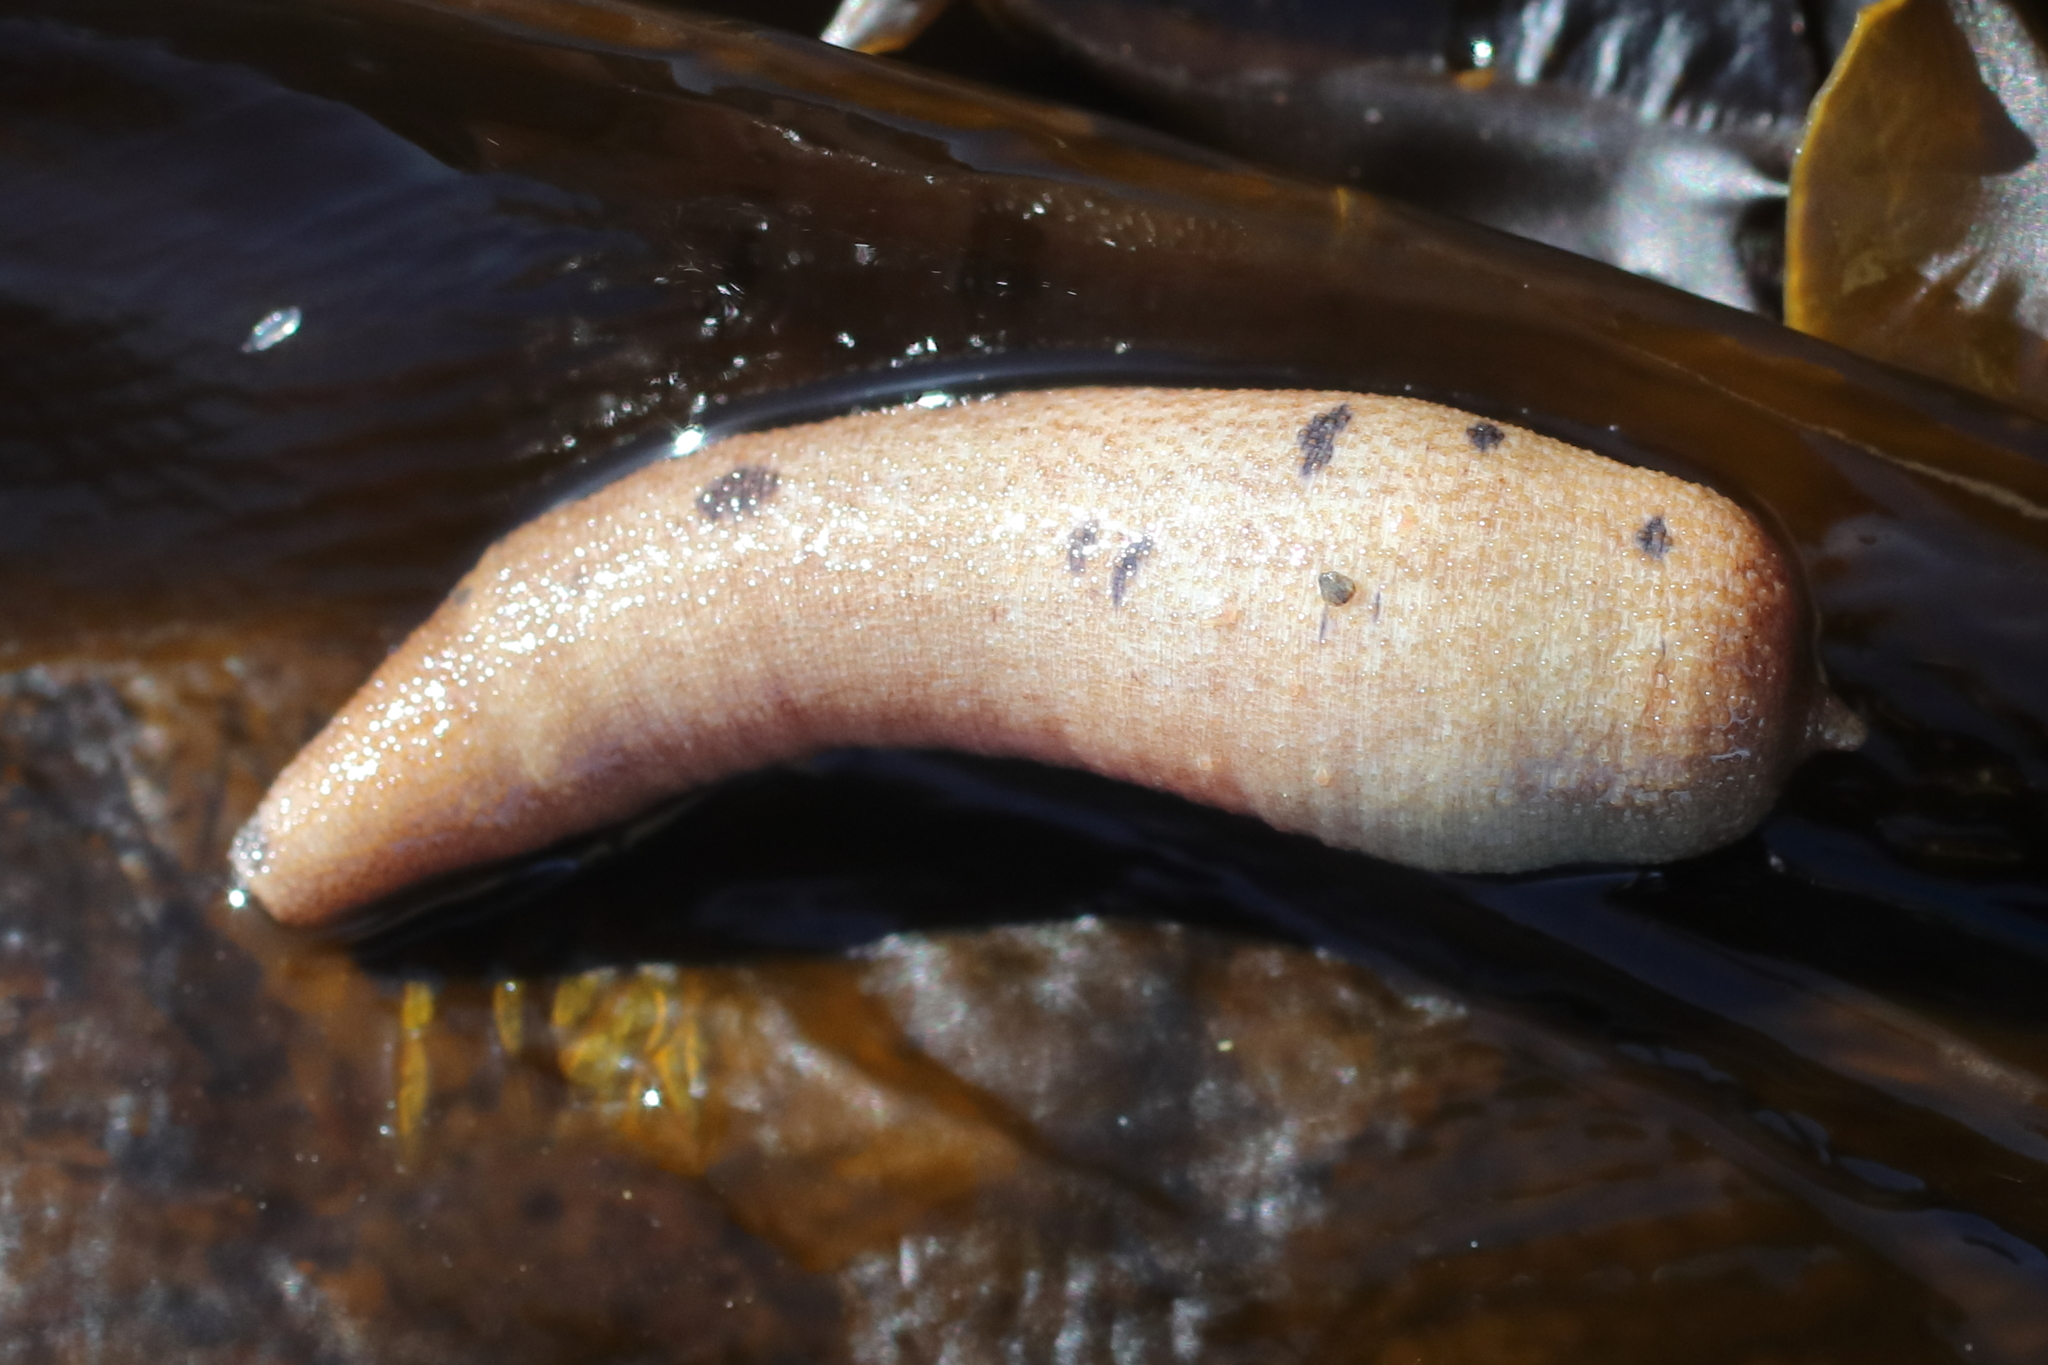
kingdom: Animalia
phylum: Sipuncula
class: Phascolosomatidea
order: Phascolosomatiformes
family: Phascolosomatidae
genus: Phascolosoma
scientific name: Phascolosoma agassizii
